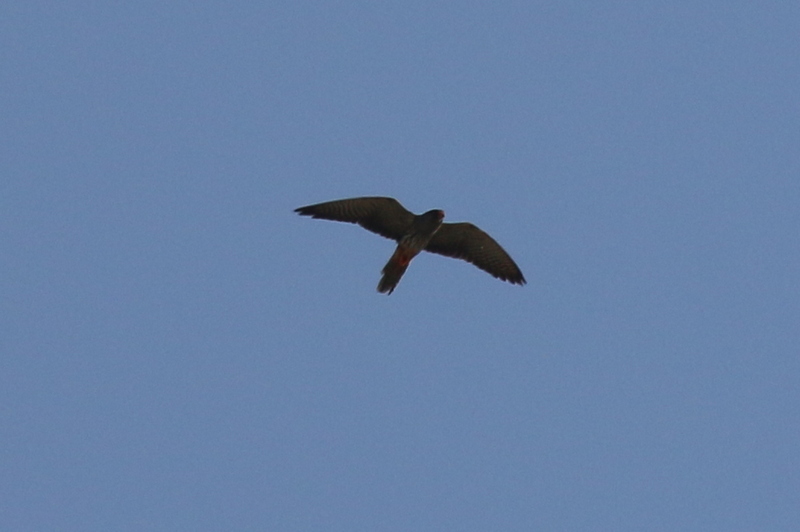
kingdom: Animalia
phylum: Chordata
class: Aves
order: Falconiformes
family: Falconidae
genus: Falco
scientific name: Falco amurensis
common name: Amur falcon
